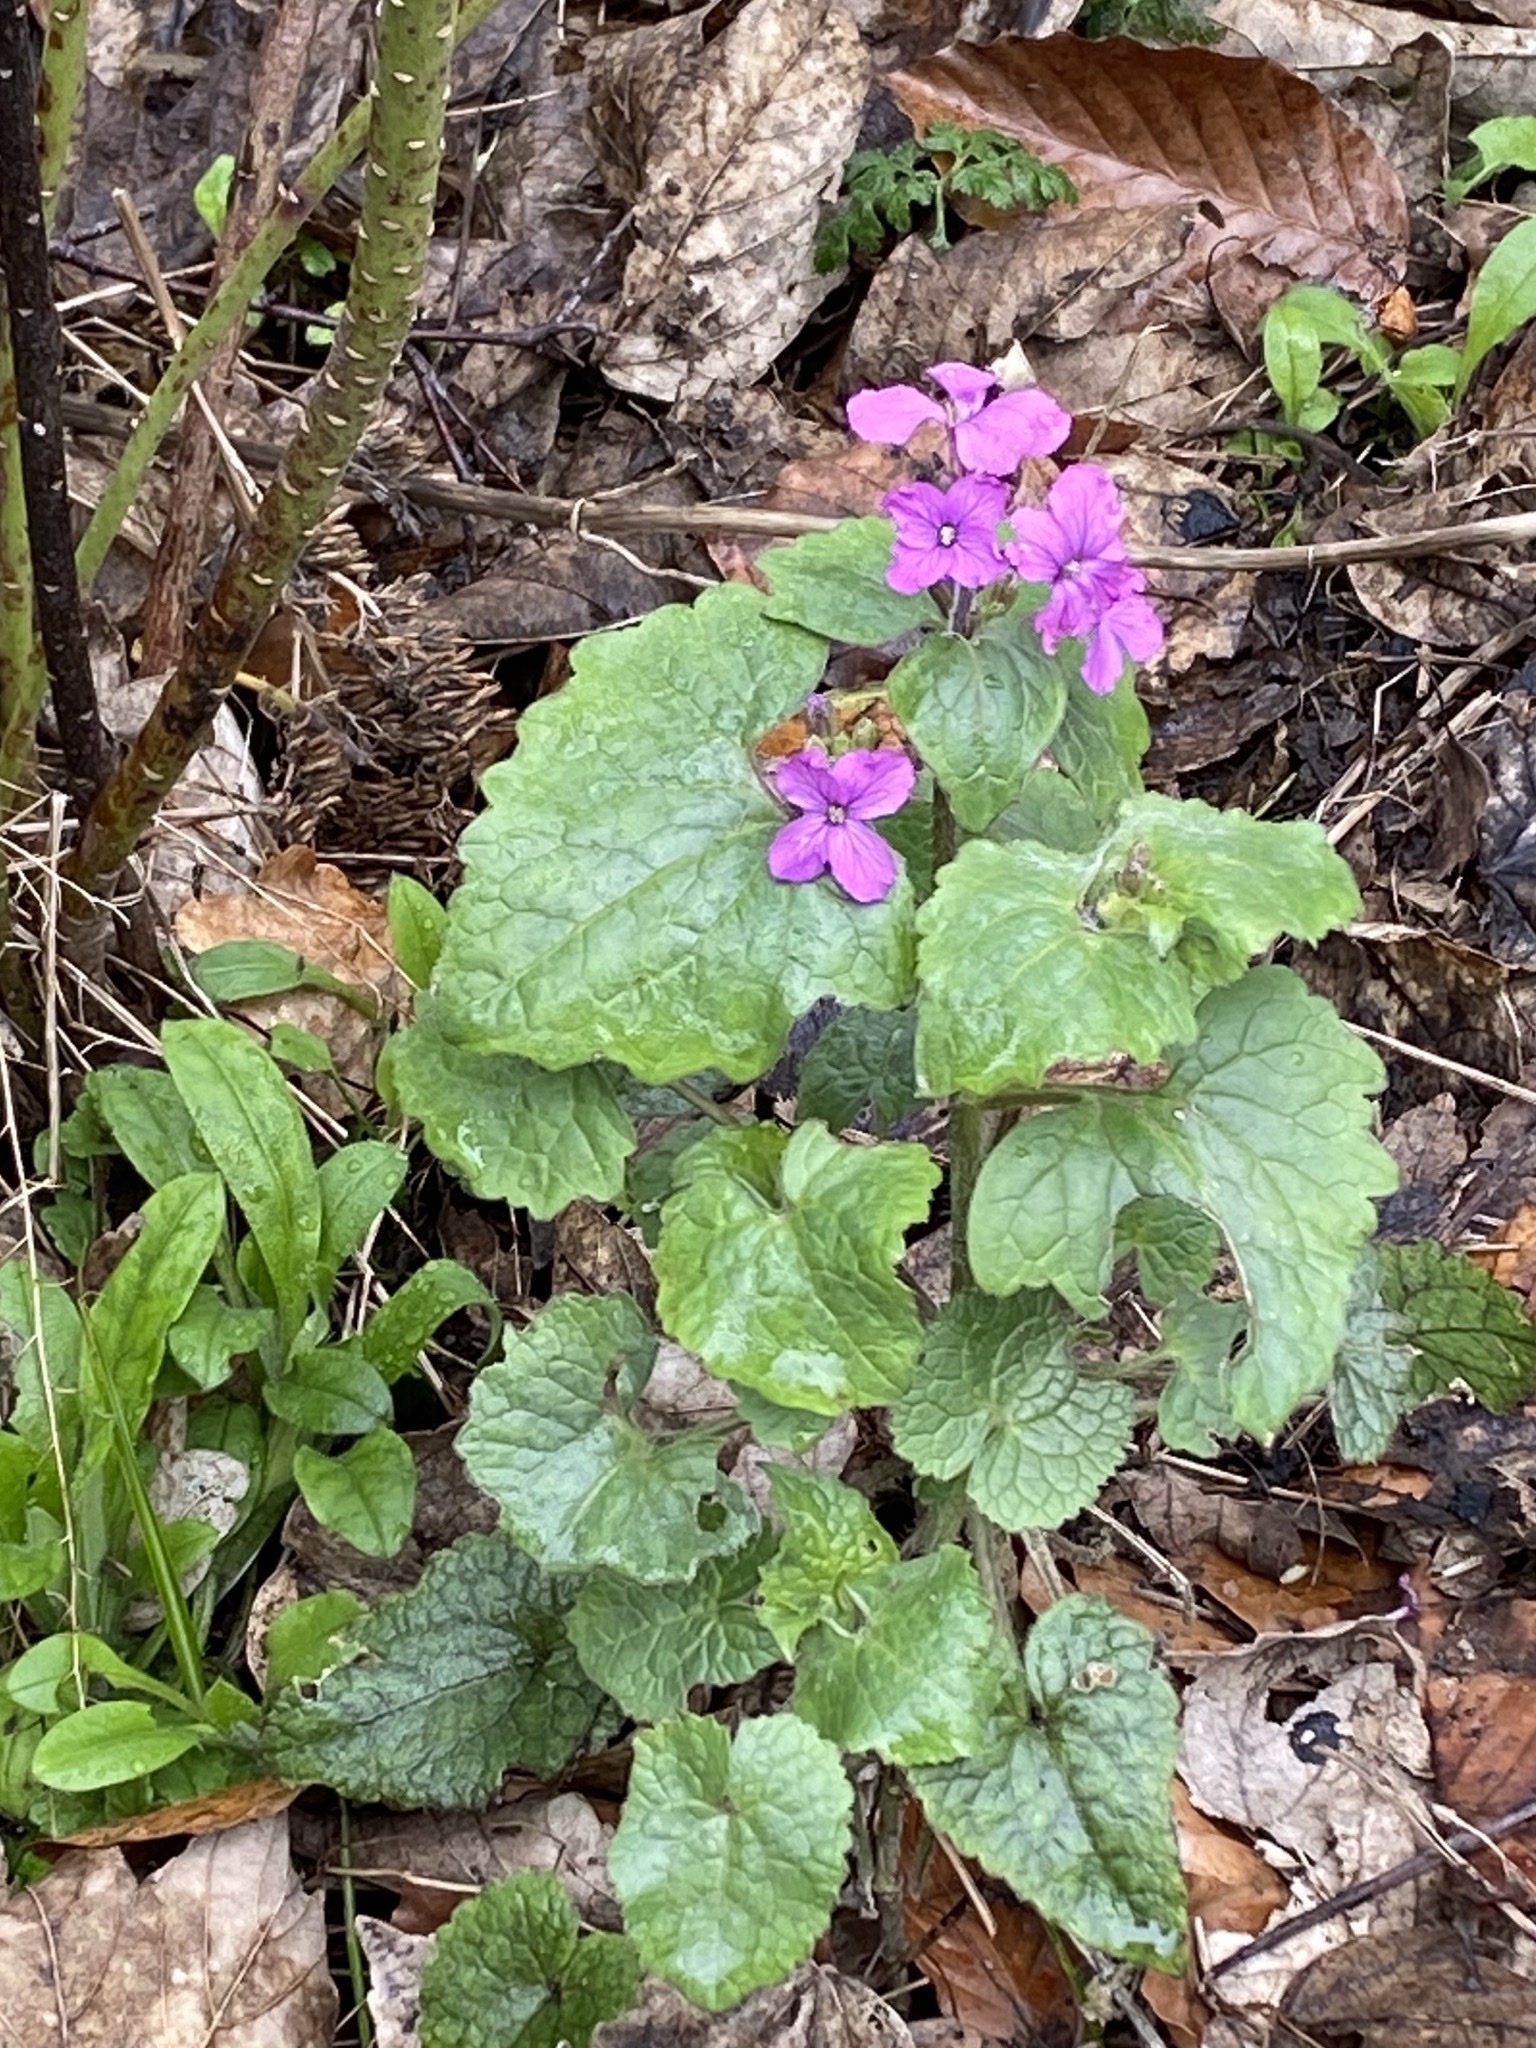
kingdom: Plantae
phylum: Tracheophyta
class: Magnoliopsida
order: Brassicales
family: Brassicaceae
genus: Lunaria
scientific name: Lunaria annua
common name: Honesty
